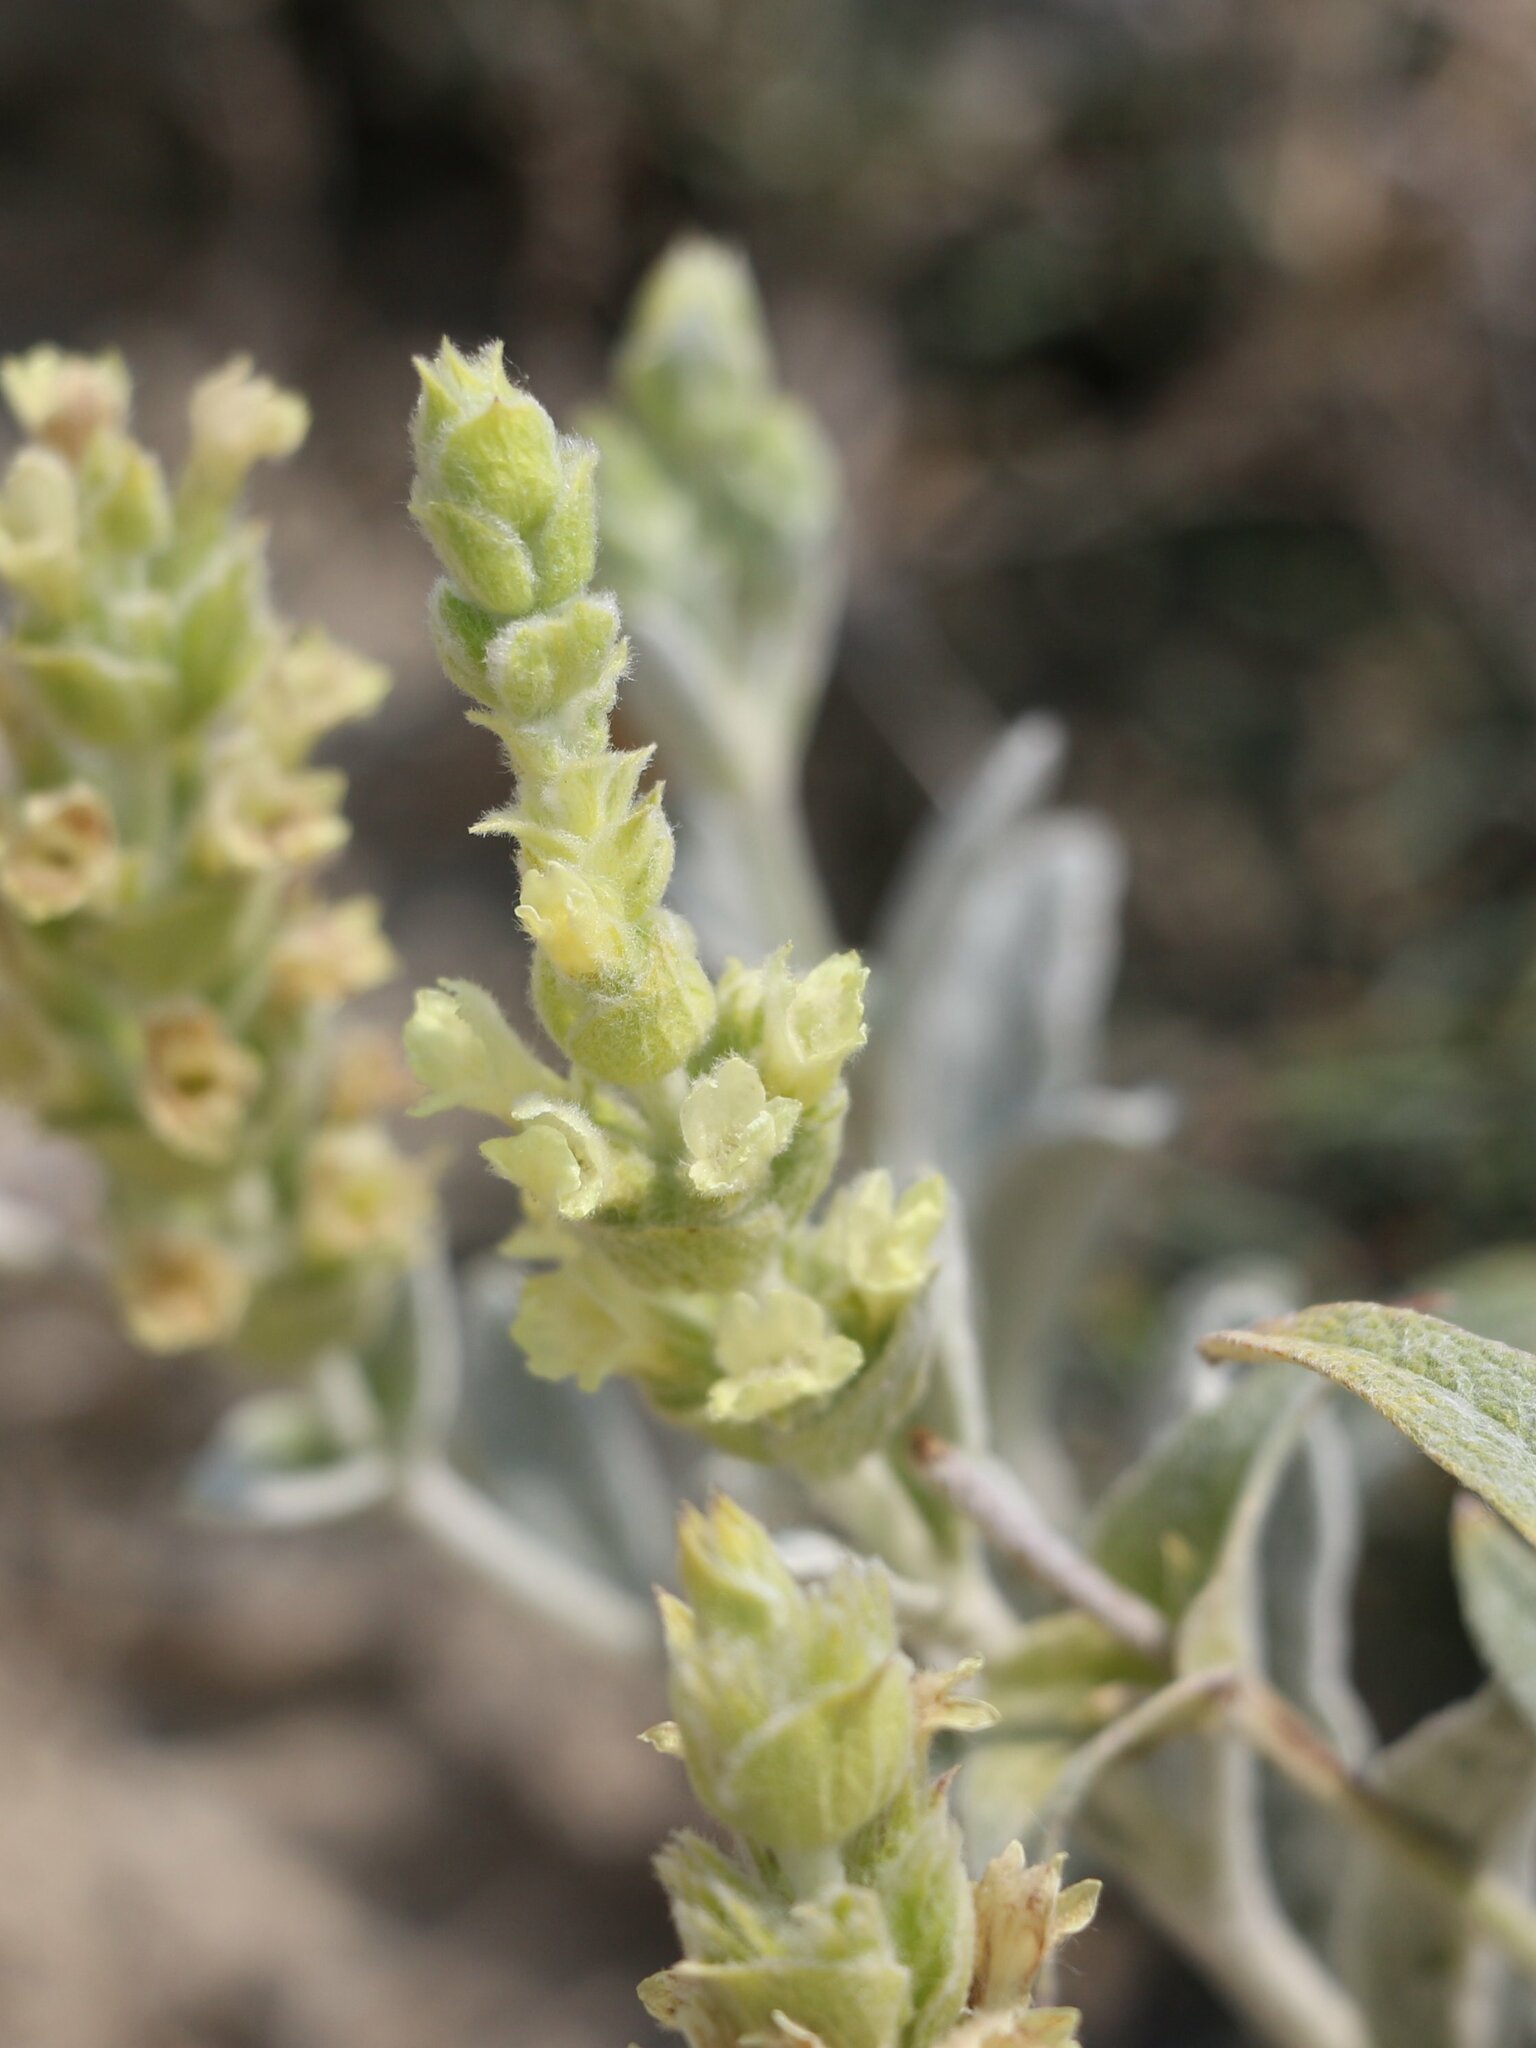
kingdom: Plantae
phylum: Tracheophyta
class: Magnoliopsida
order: Lamiales
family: Lamiaceae
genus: Sideritis
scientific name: Sideritis euxina
